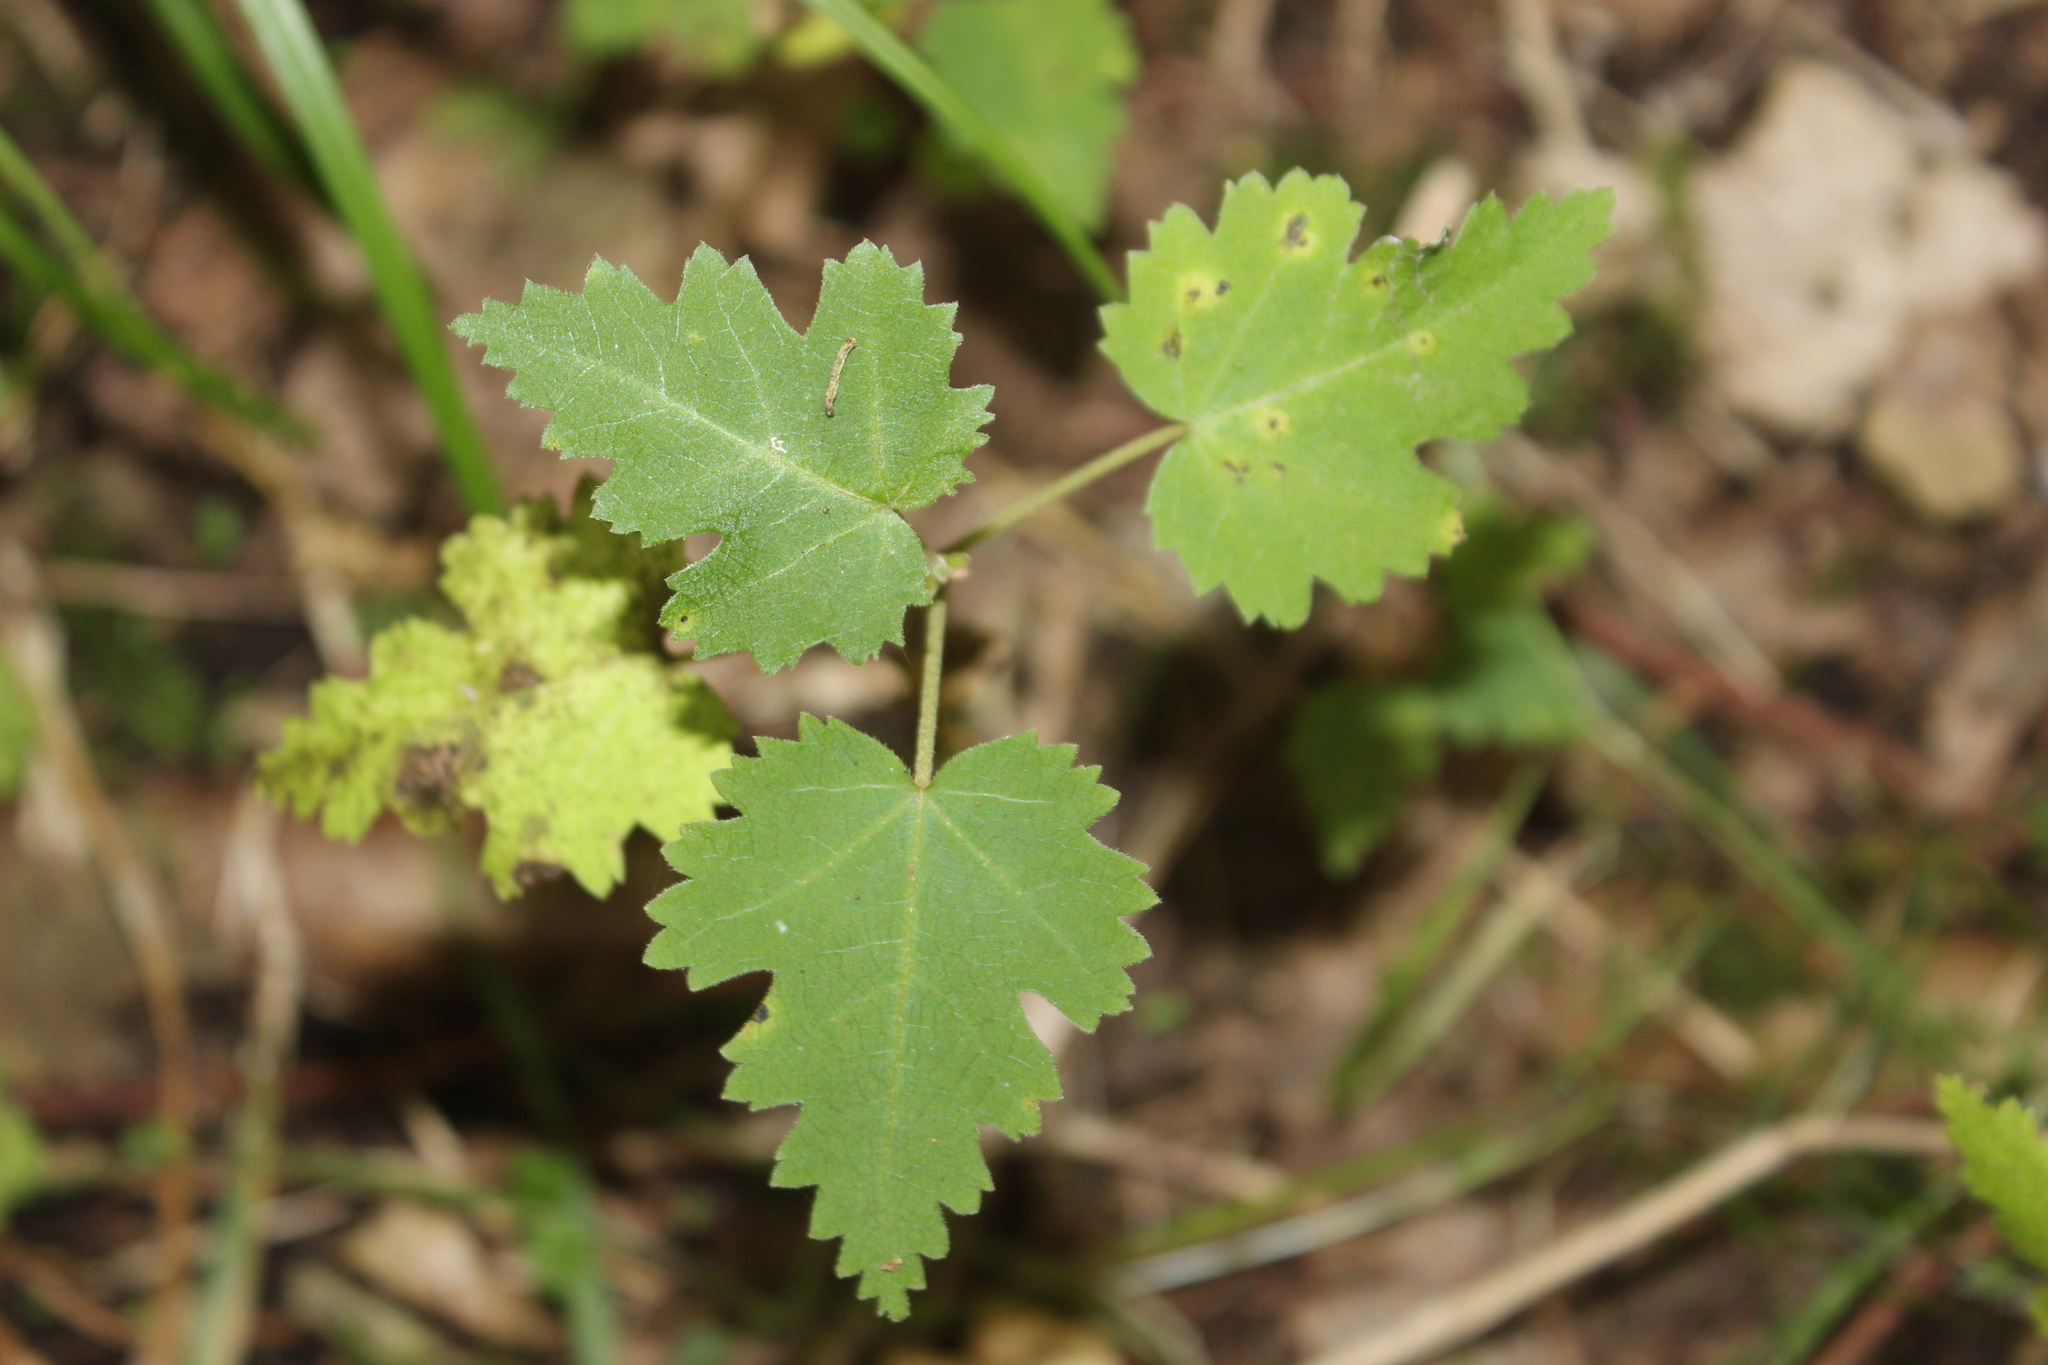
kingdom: Plantae
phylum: Tracheophyta
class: Magnoliopsida
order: Malvales
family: Malvaceae
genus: Plagianthus
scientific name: Plagianthus regius
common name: Manatu
